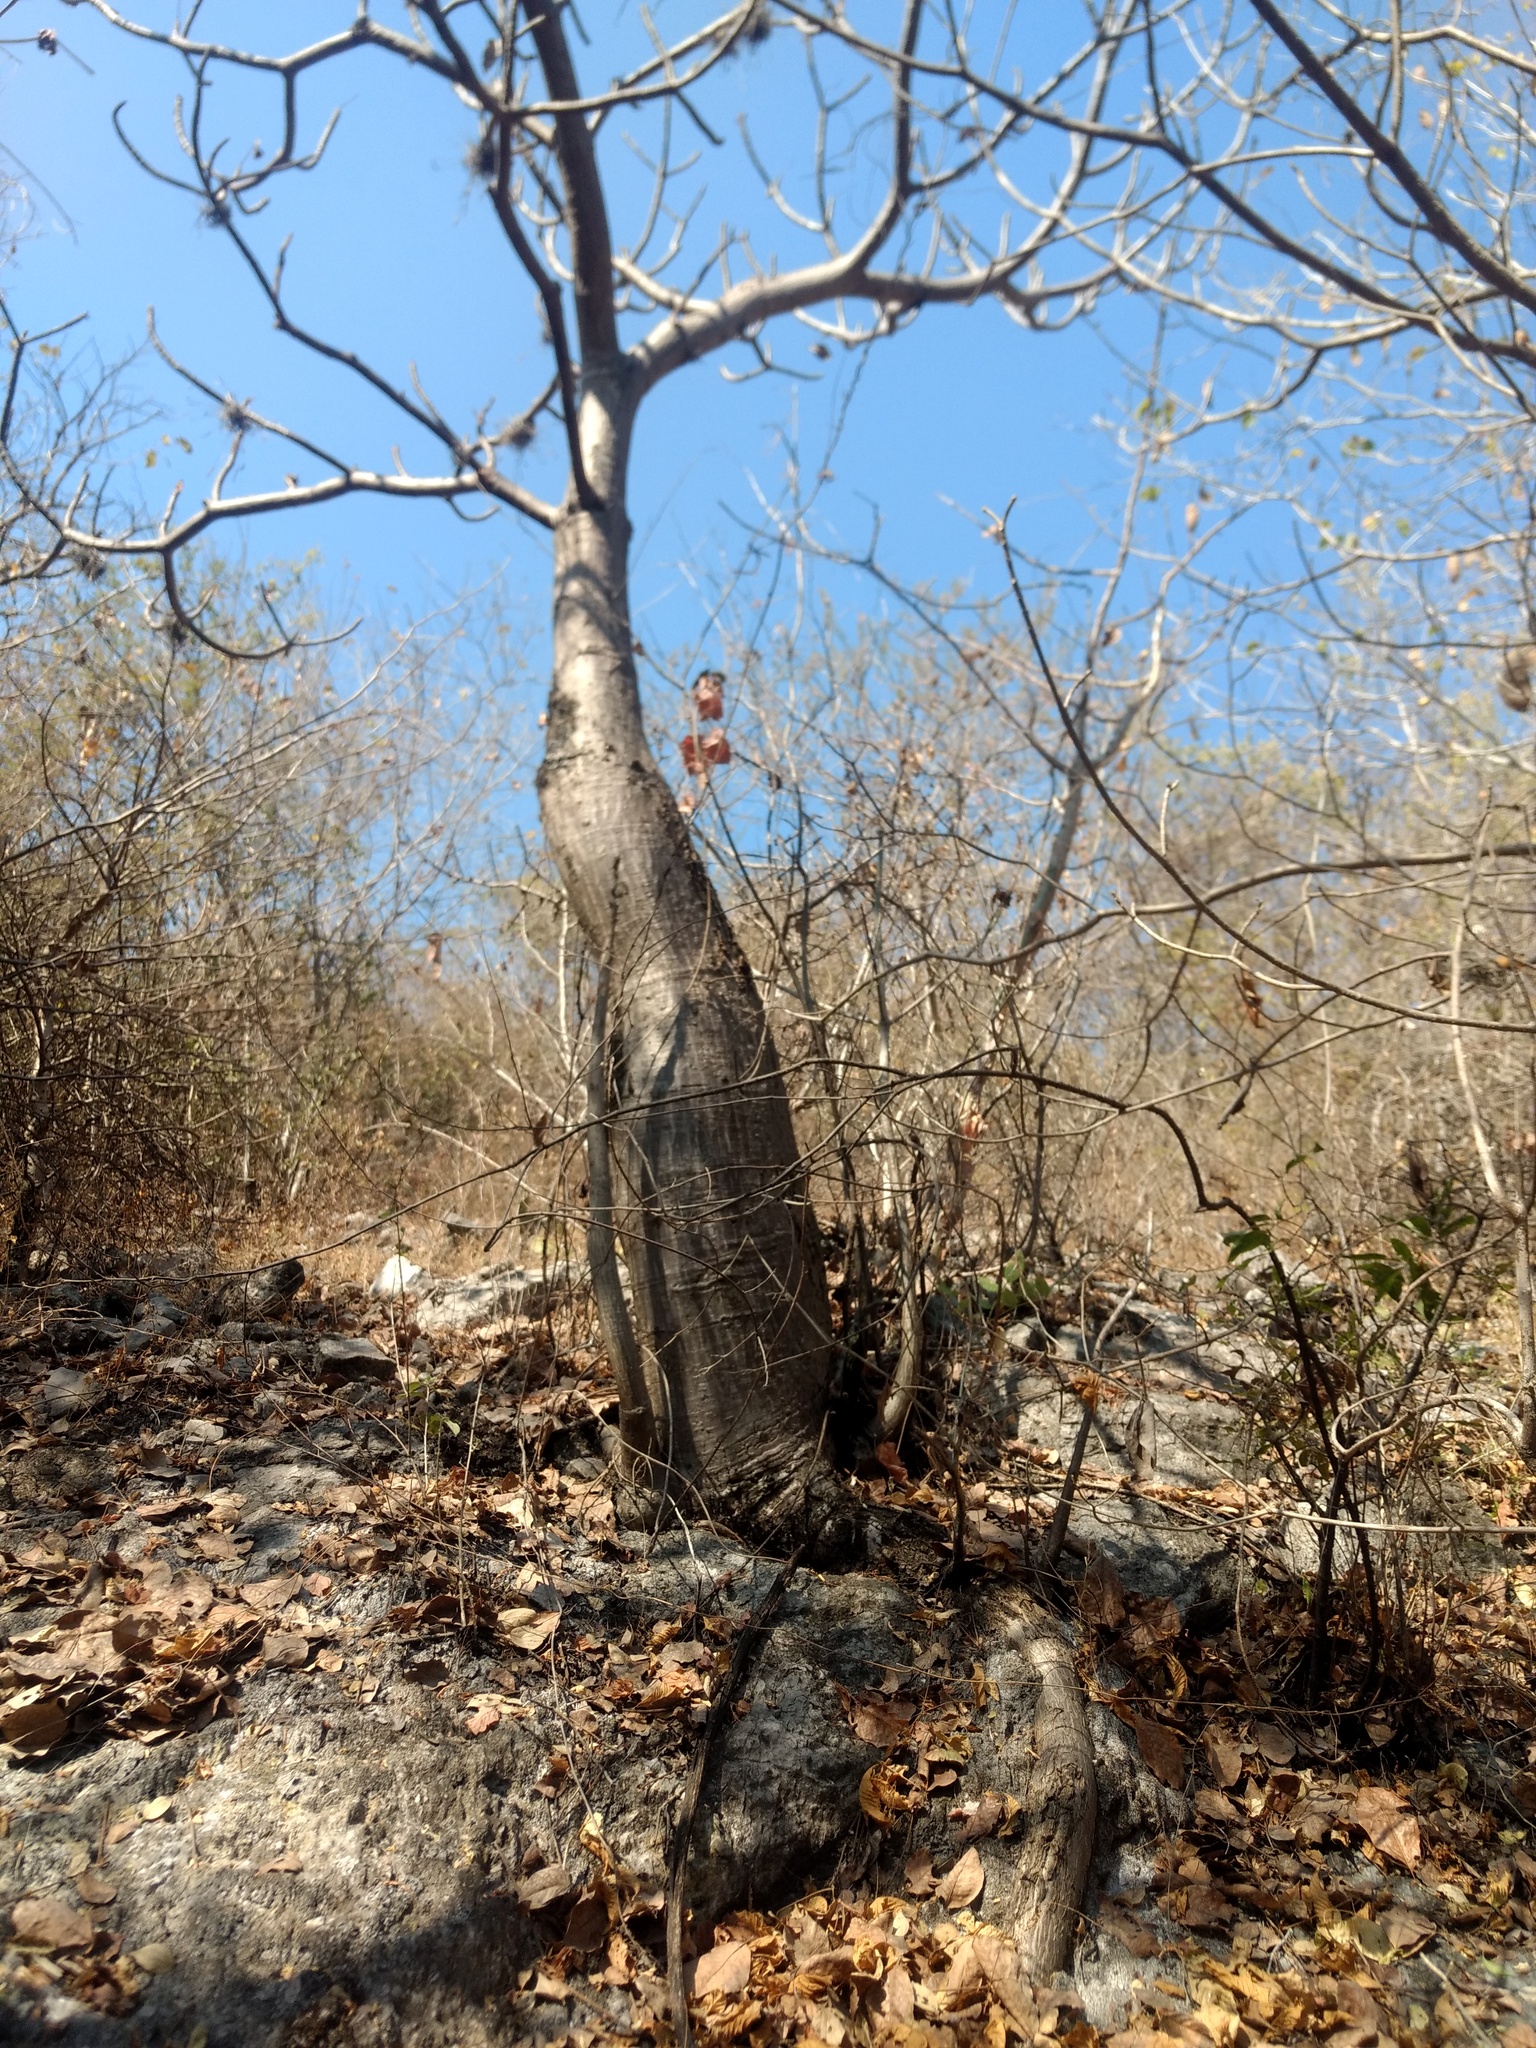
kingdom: Plantae
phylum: Tracheophyta
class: Magnoliopsida
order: Malvales
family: Malvaceae
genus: Pseudobombax
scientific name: Pseudobombax ellipticum
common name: Shaving-brush-tree
